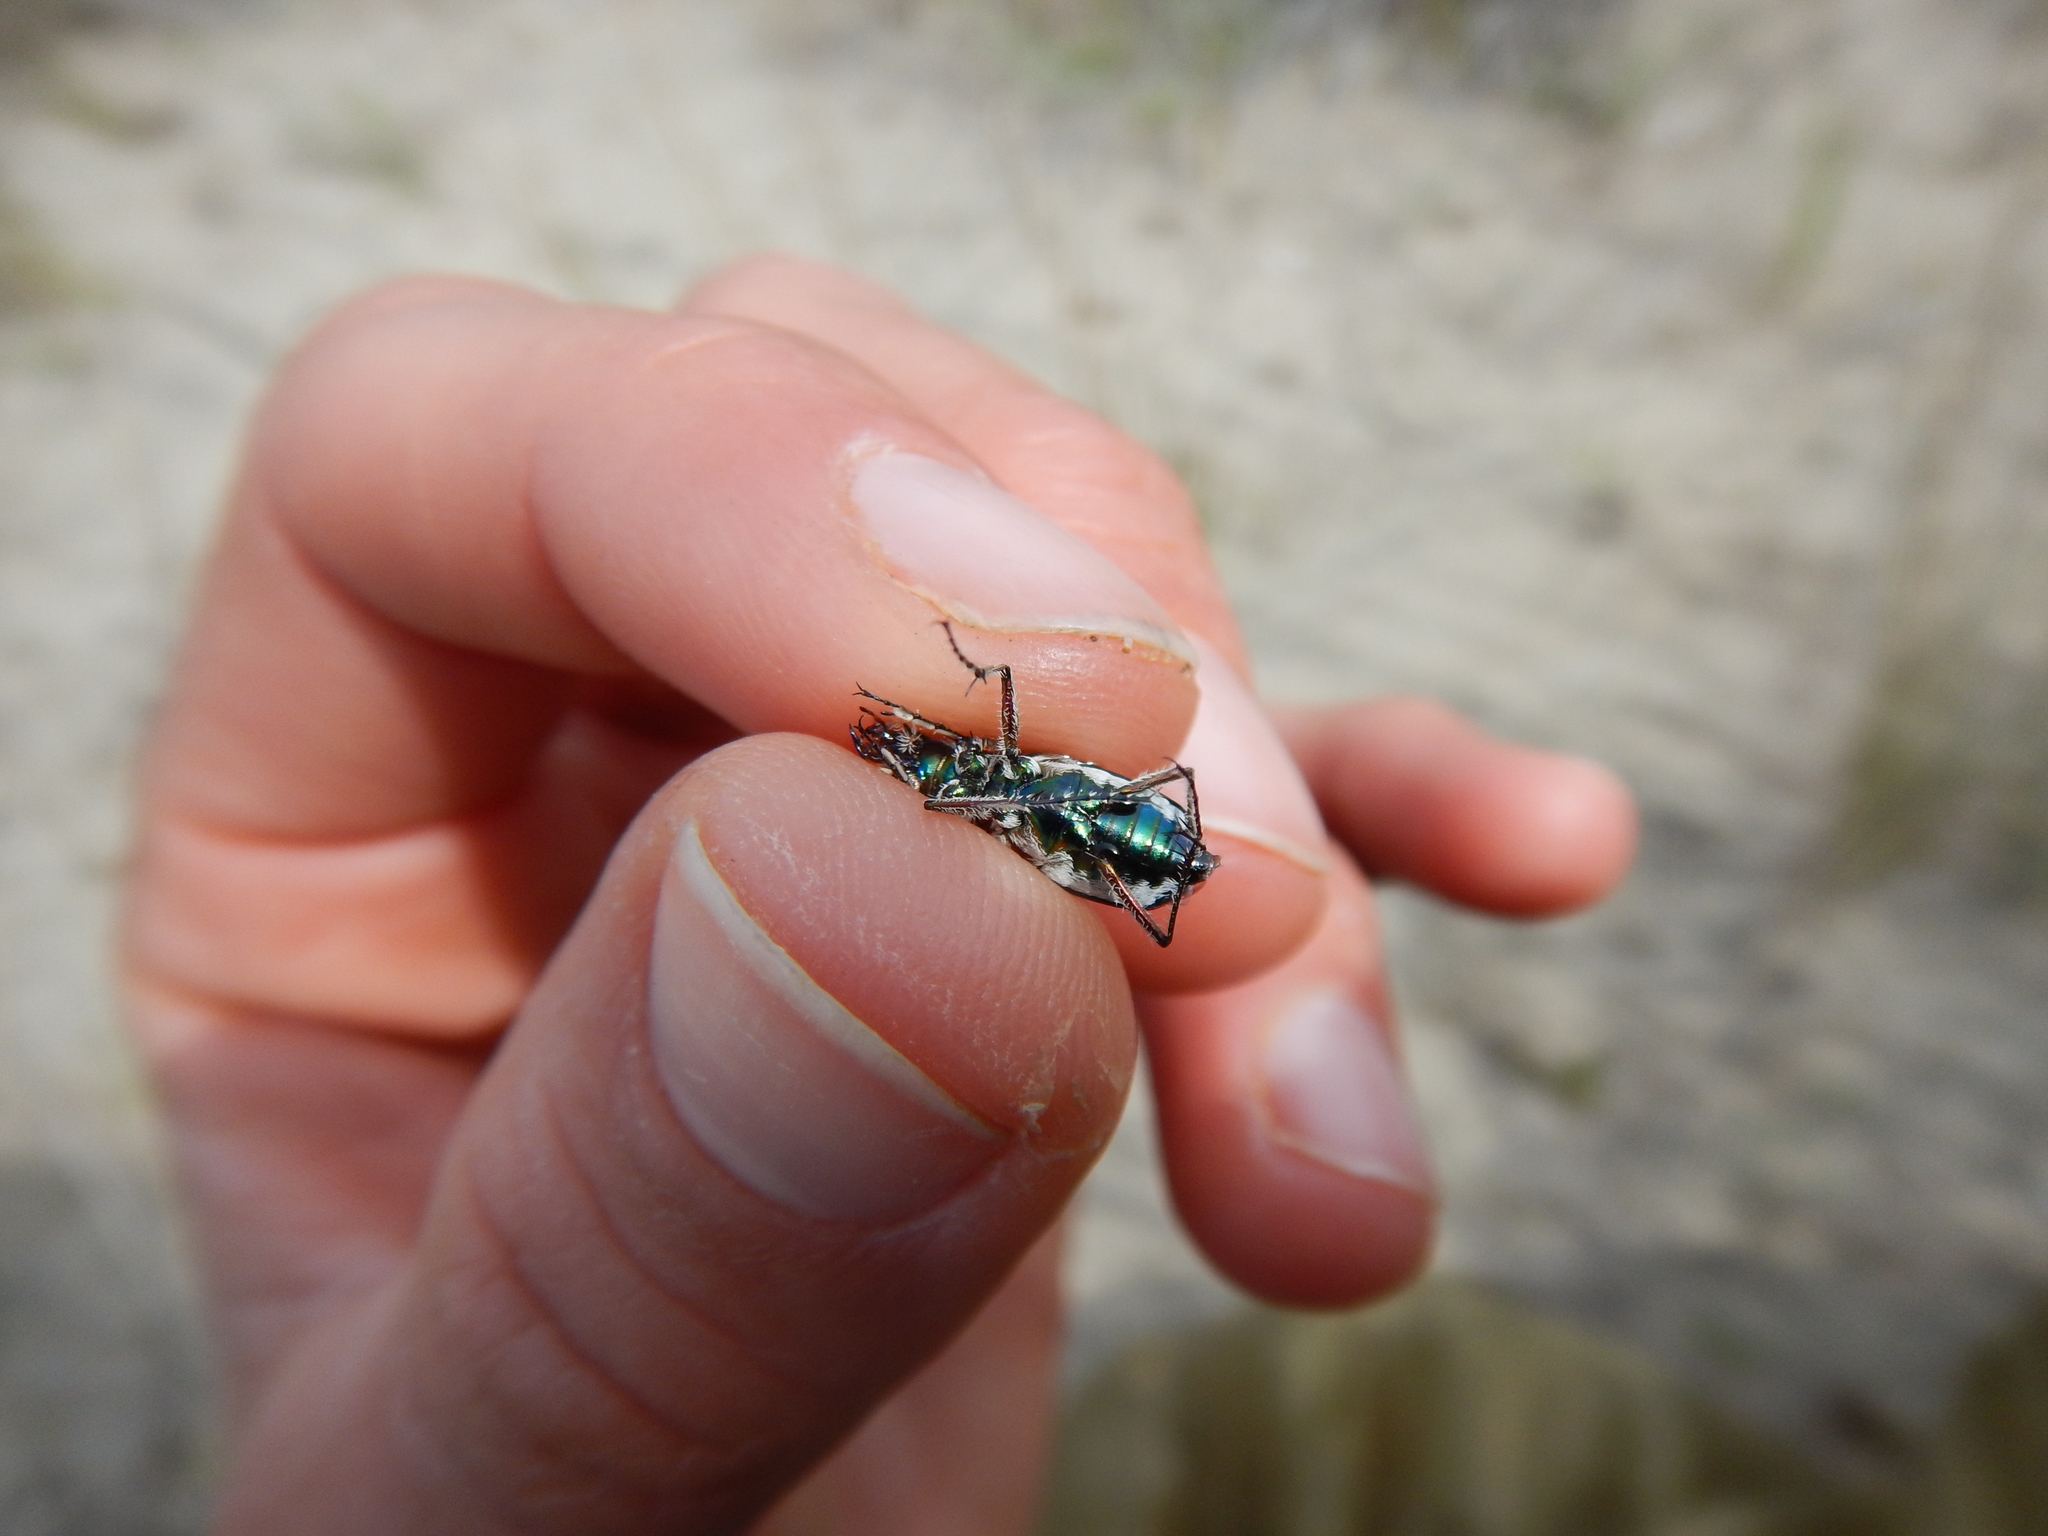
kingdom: Animalia
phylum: Arthropoda
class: Insecta
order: Coleoptera
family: Carabidae
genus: Lophyra
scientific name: Lophyra flexuosa
